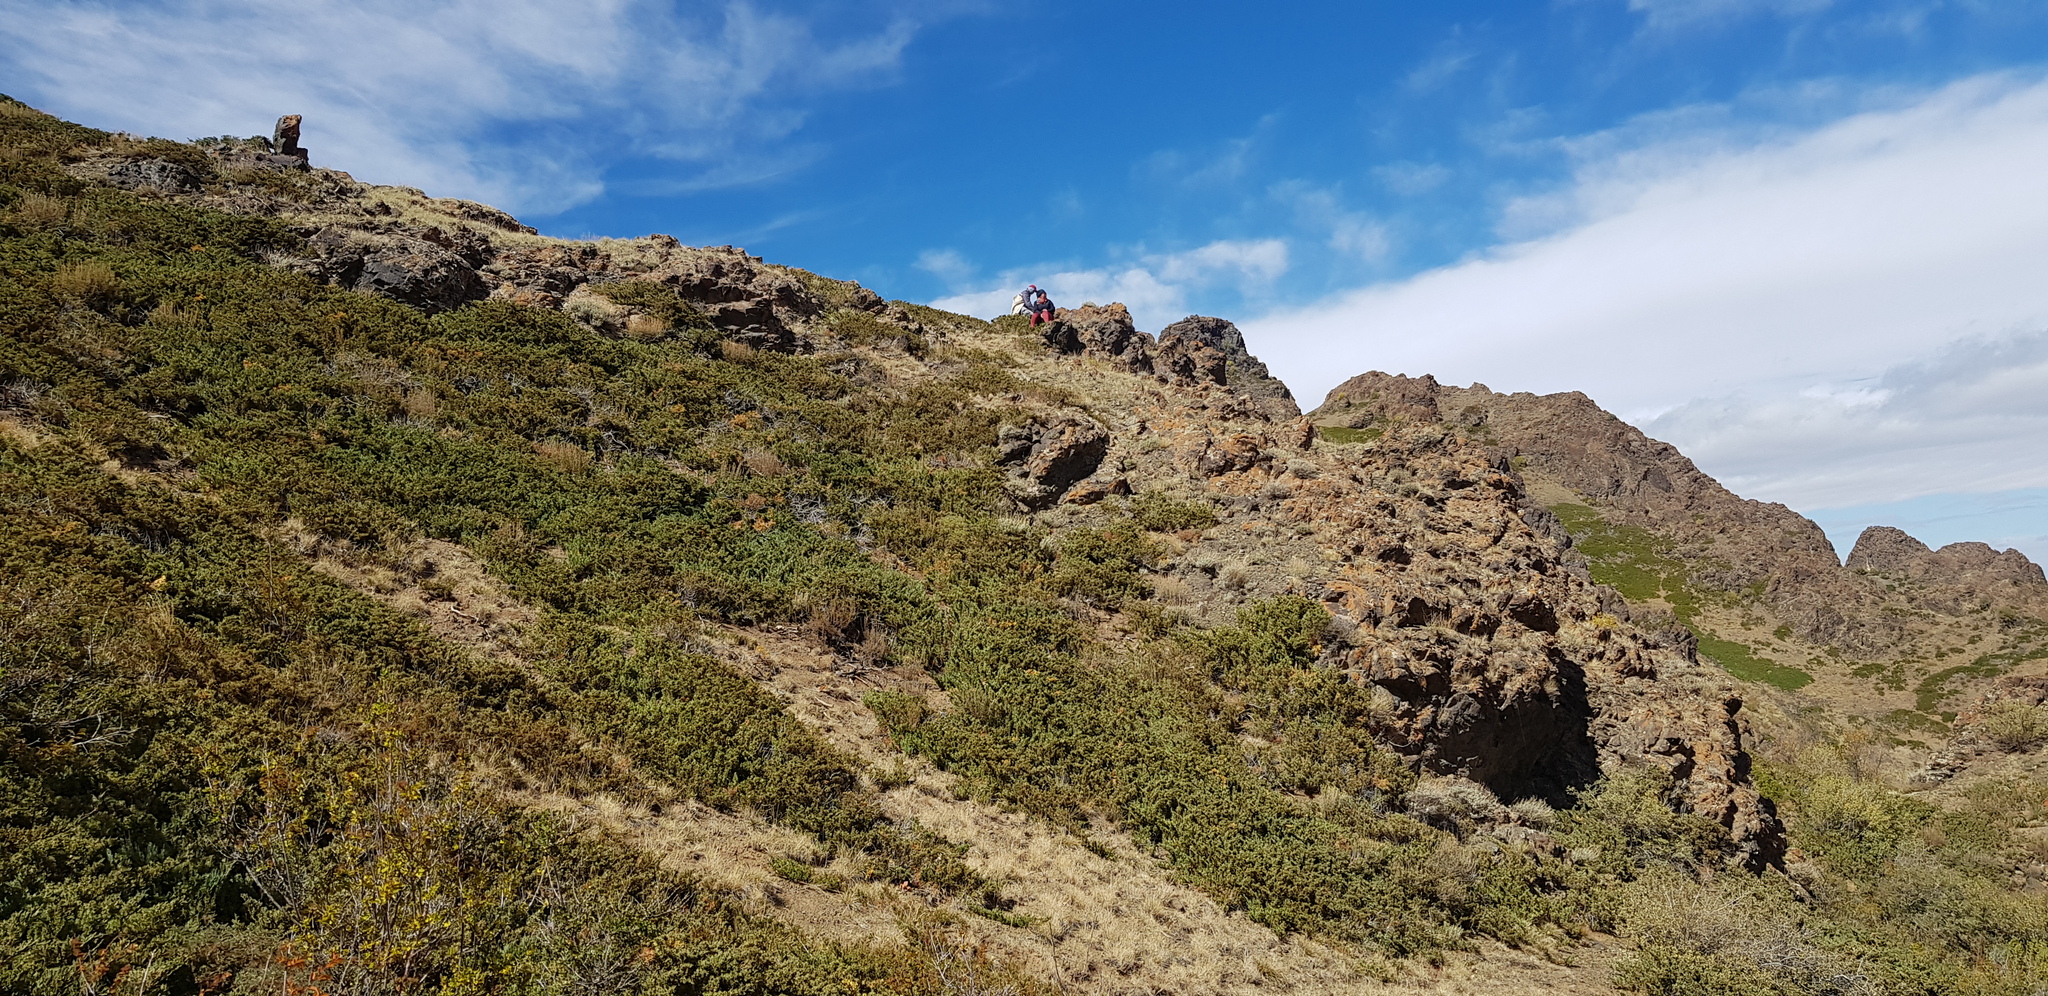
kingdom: Plantae
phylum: Tracheophyta
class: Pinopsida
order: Pinales
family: Cupressaceae
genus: Juniperus
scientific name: Juniperus pseudosabina
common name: Turkestan juniper
